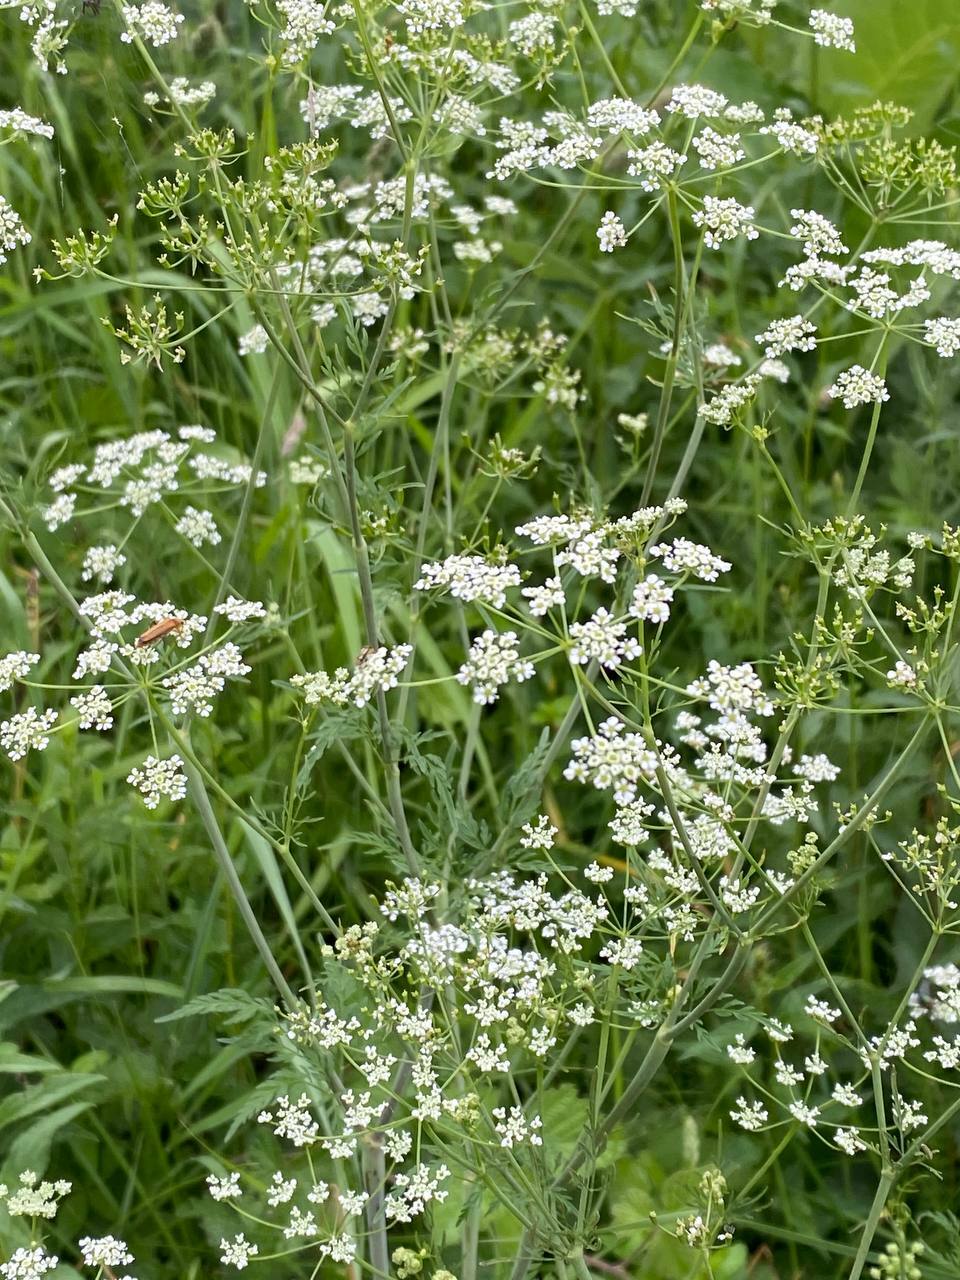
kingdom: Plantae
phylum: Tracheophyta
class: Magnoliopsida
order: Apiales
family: Apiaceae
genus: Anthriscus
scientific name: Anthriscus sylvestris
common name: Cow parsley
